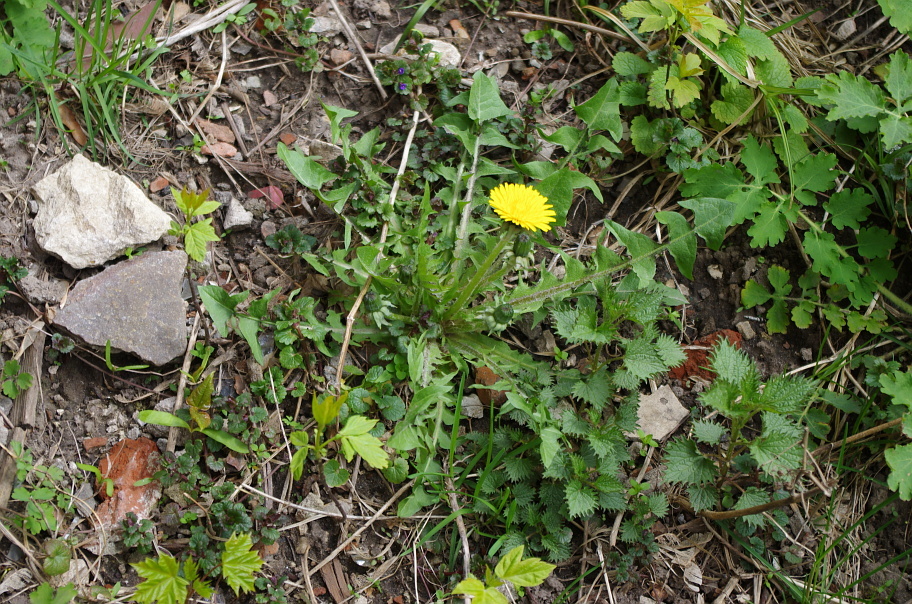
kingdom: Plantae
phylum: Tracheophyta
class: Magnoliopsida
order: Asterales
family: Asteraceae
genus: Taraxacum
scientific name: Taraxacum officinale
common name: Common dandelion
